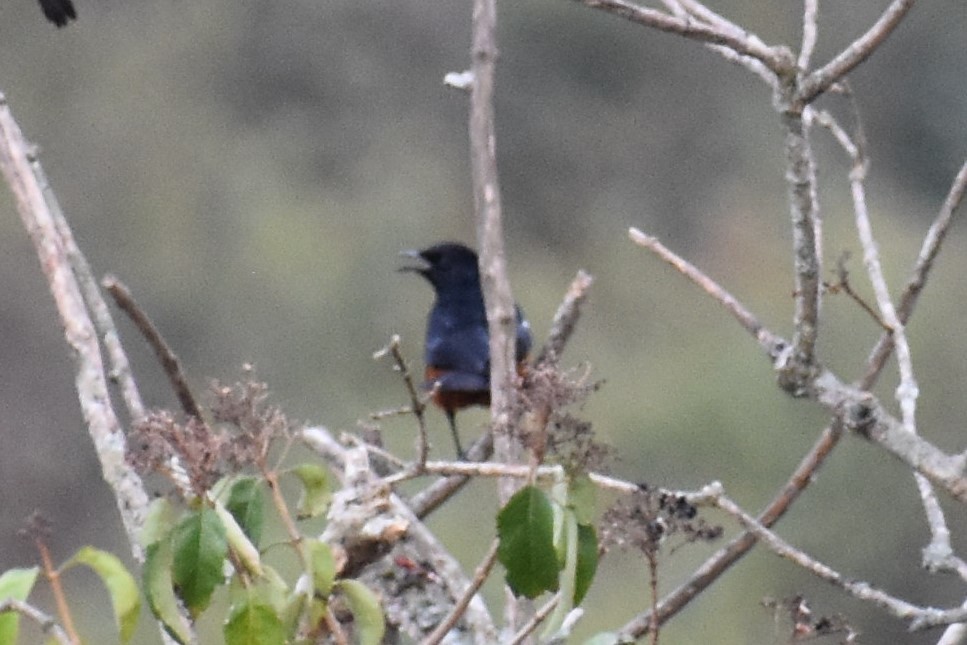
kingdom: Animalia
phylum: Chordata
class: Aves
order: Passeriformes
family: Muscicapidae
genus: Thamnolaea
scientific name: Thamnolaea cinnamomeiventris
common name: Mocking cliff chat
